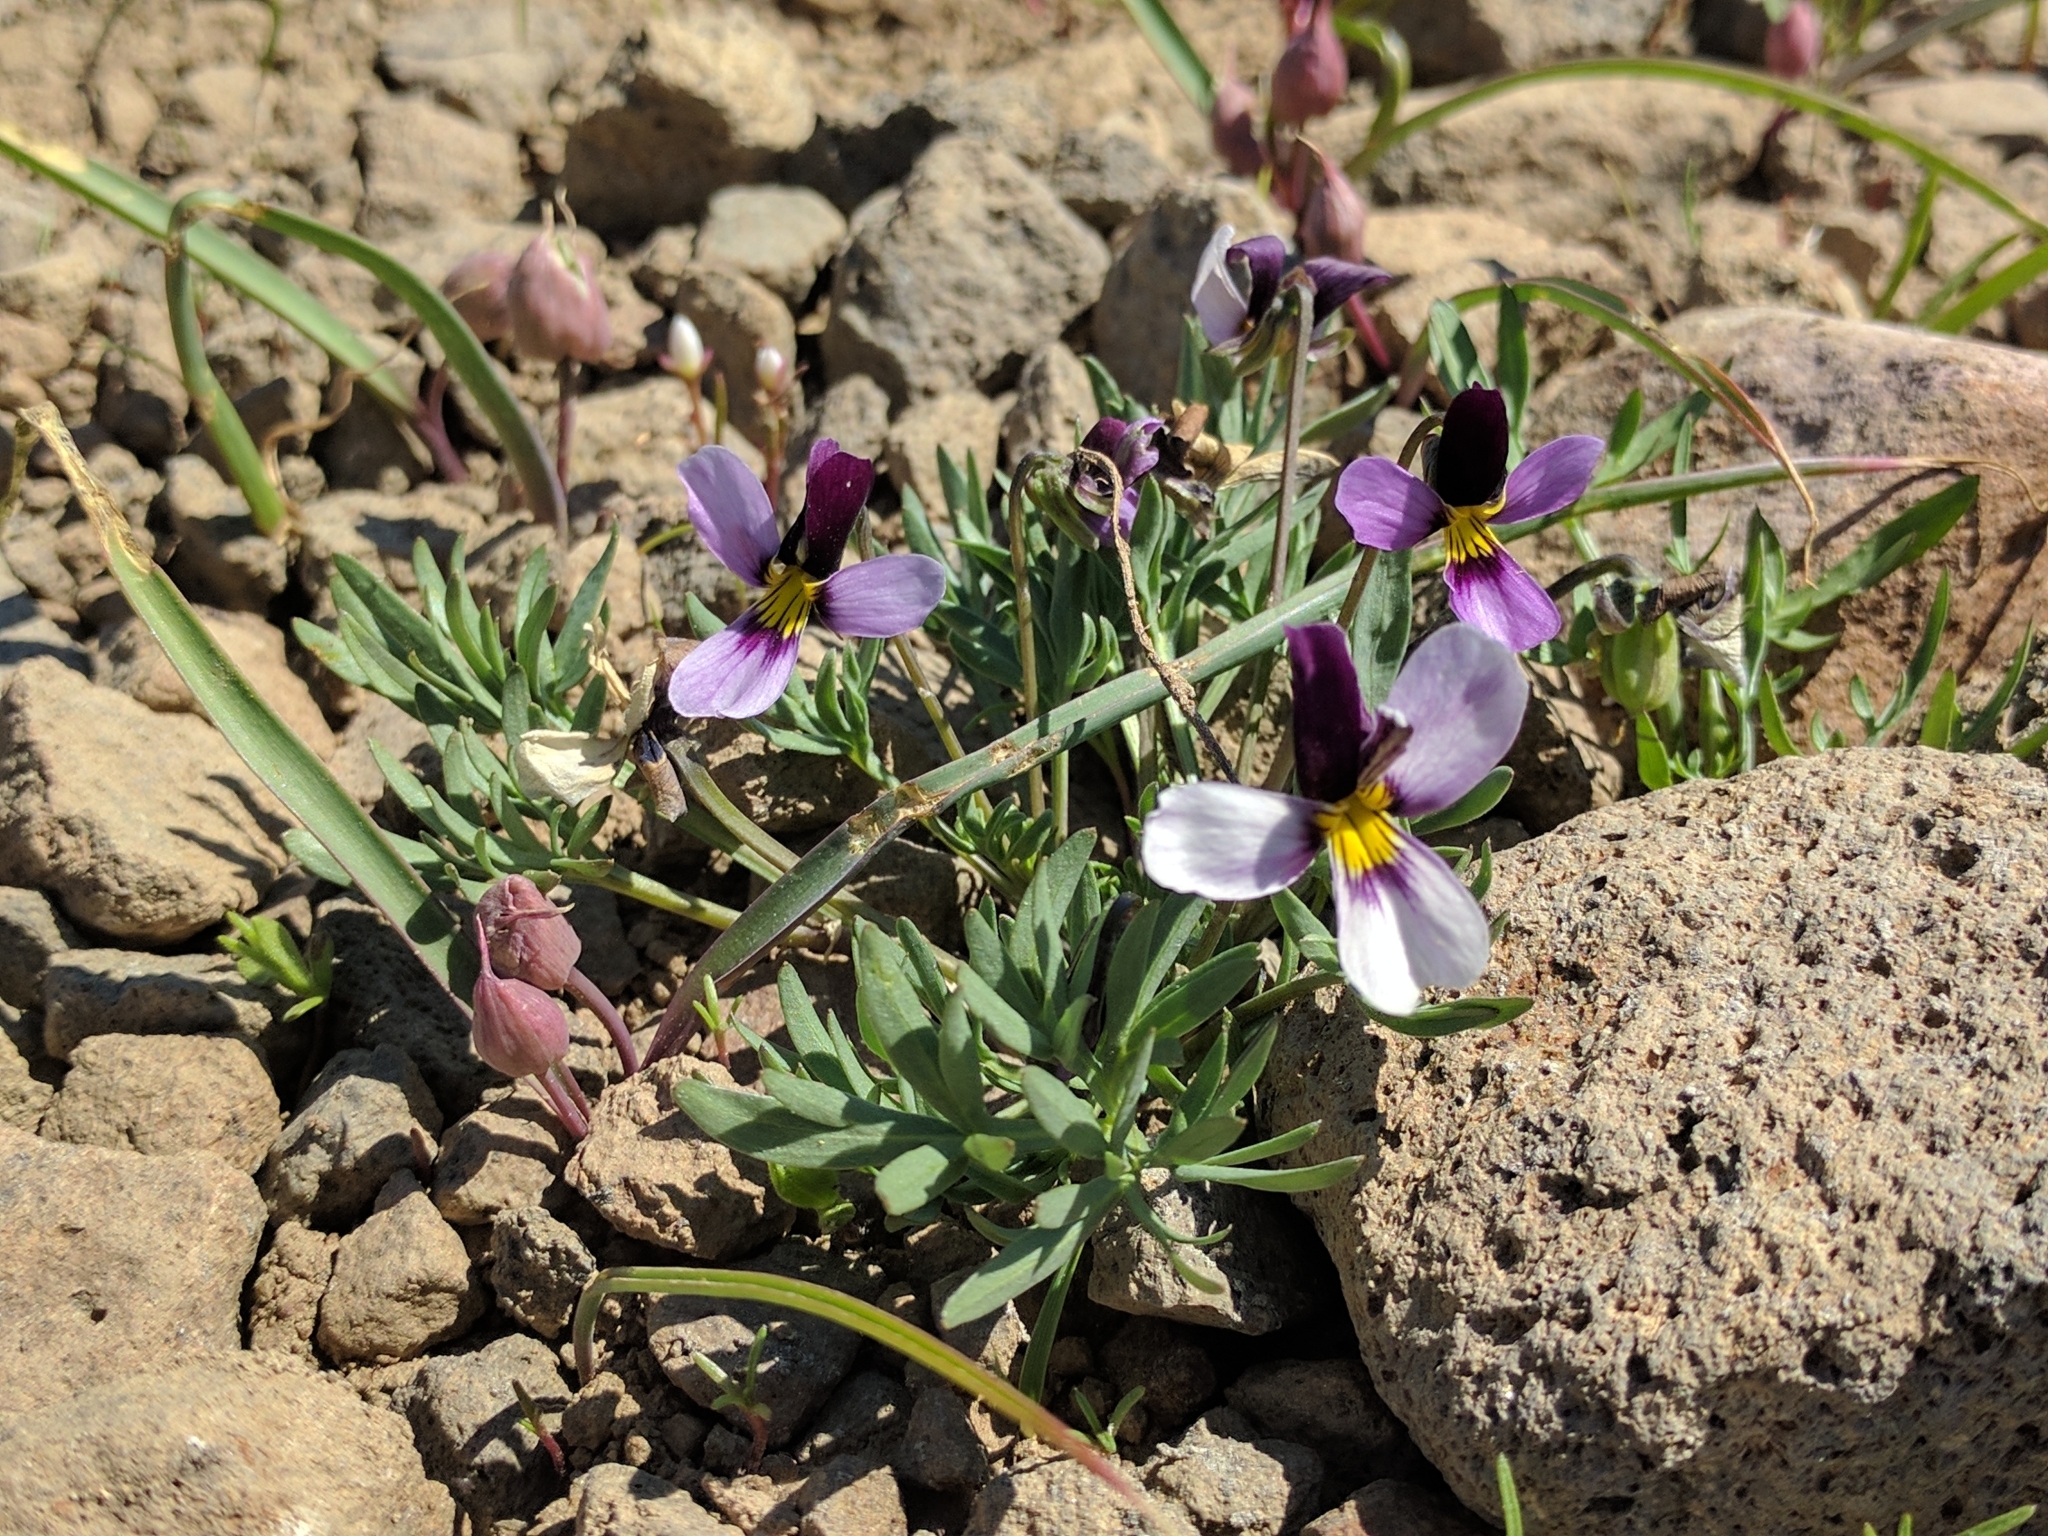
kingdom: Plantae
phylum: Tracheophyta
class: Magnoliopsida
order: Malpighiales
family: Violaceae
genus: Viola
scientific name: Viola beckwithii
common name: Beckwith's violet
